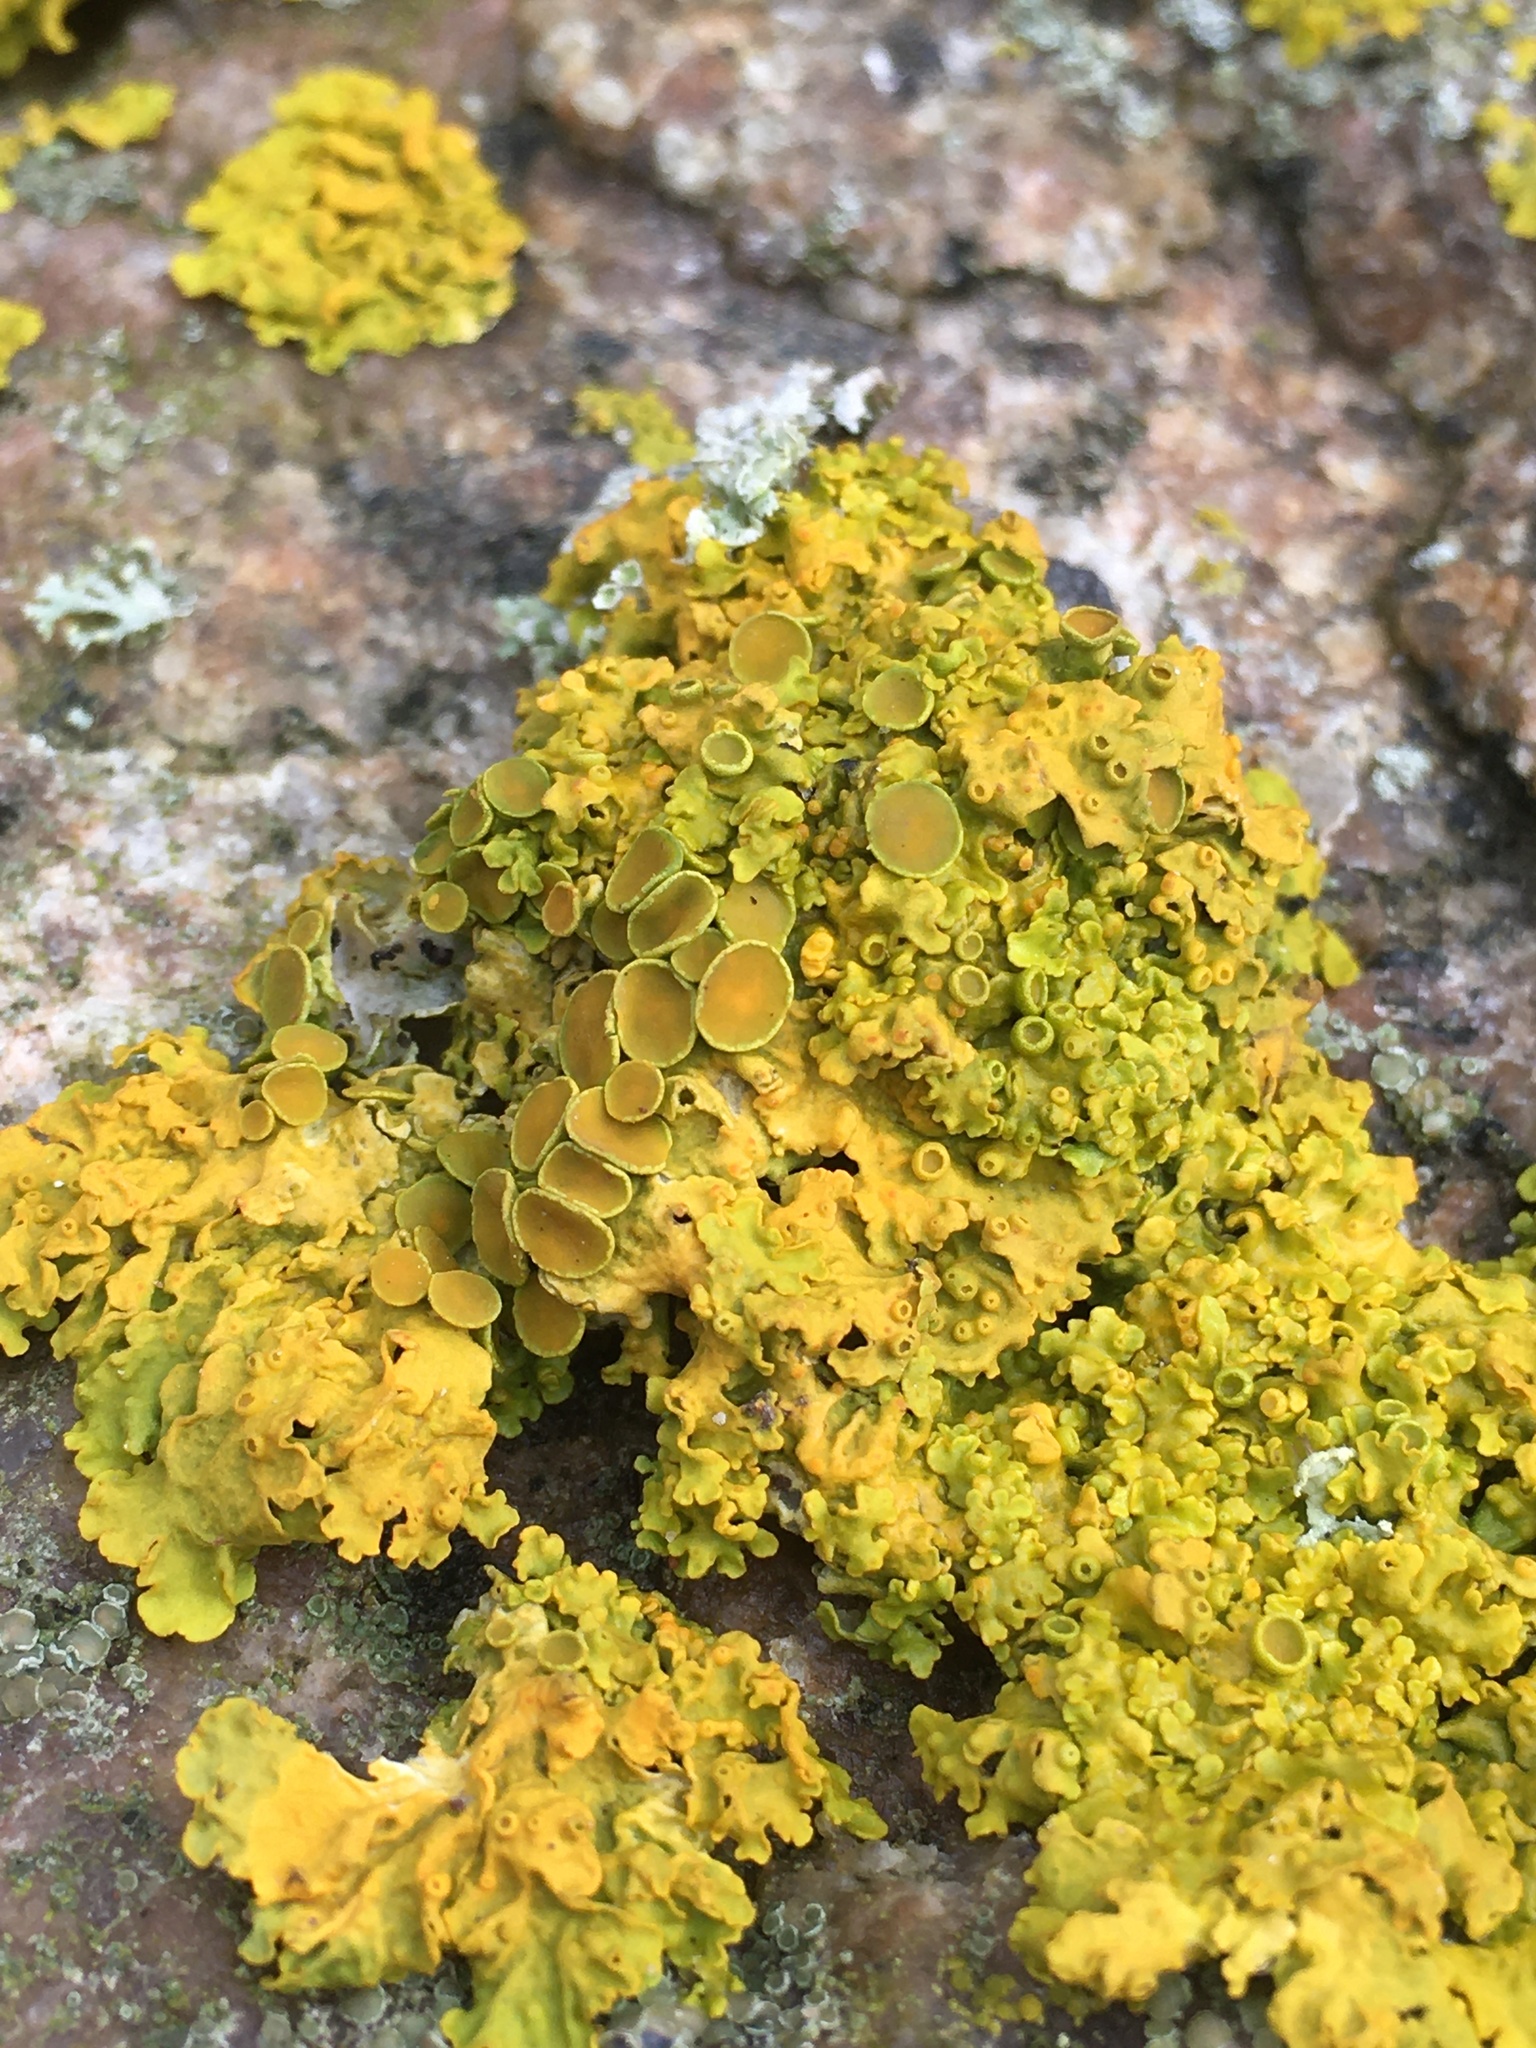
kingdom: Fungi
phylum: Ascomycota
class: Lecanoromycetes
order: Teloschistales
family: Teloschistaceae
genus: Xanthoria
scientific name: Xanthoria parietina
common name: Common orange lichen
